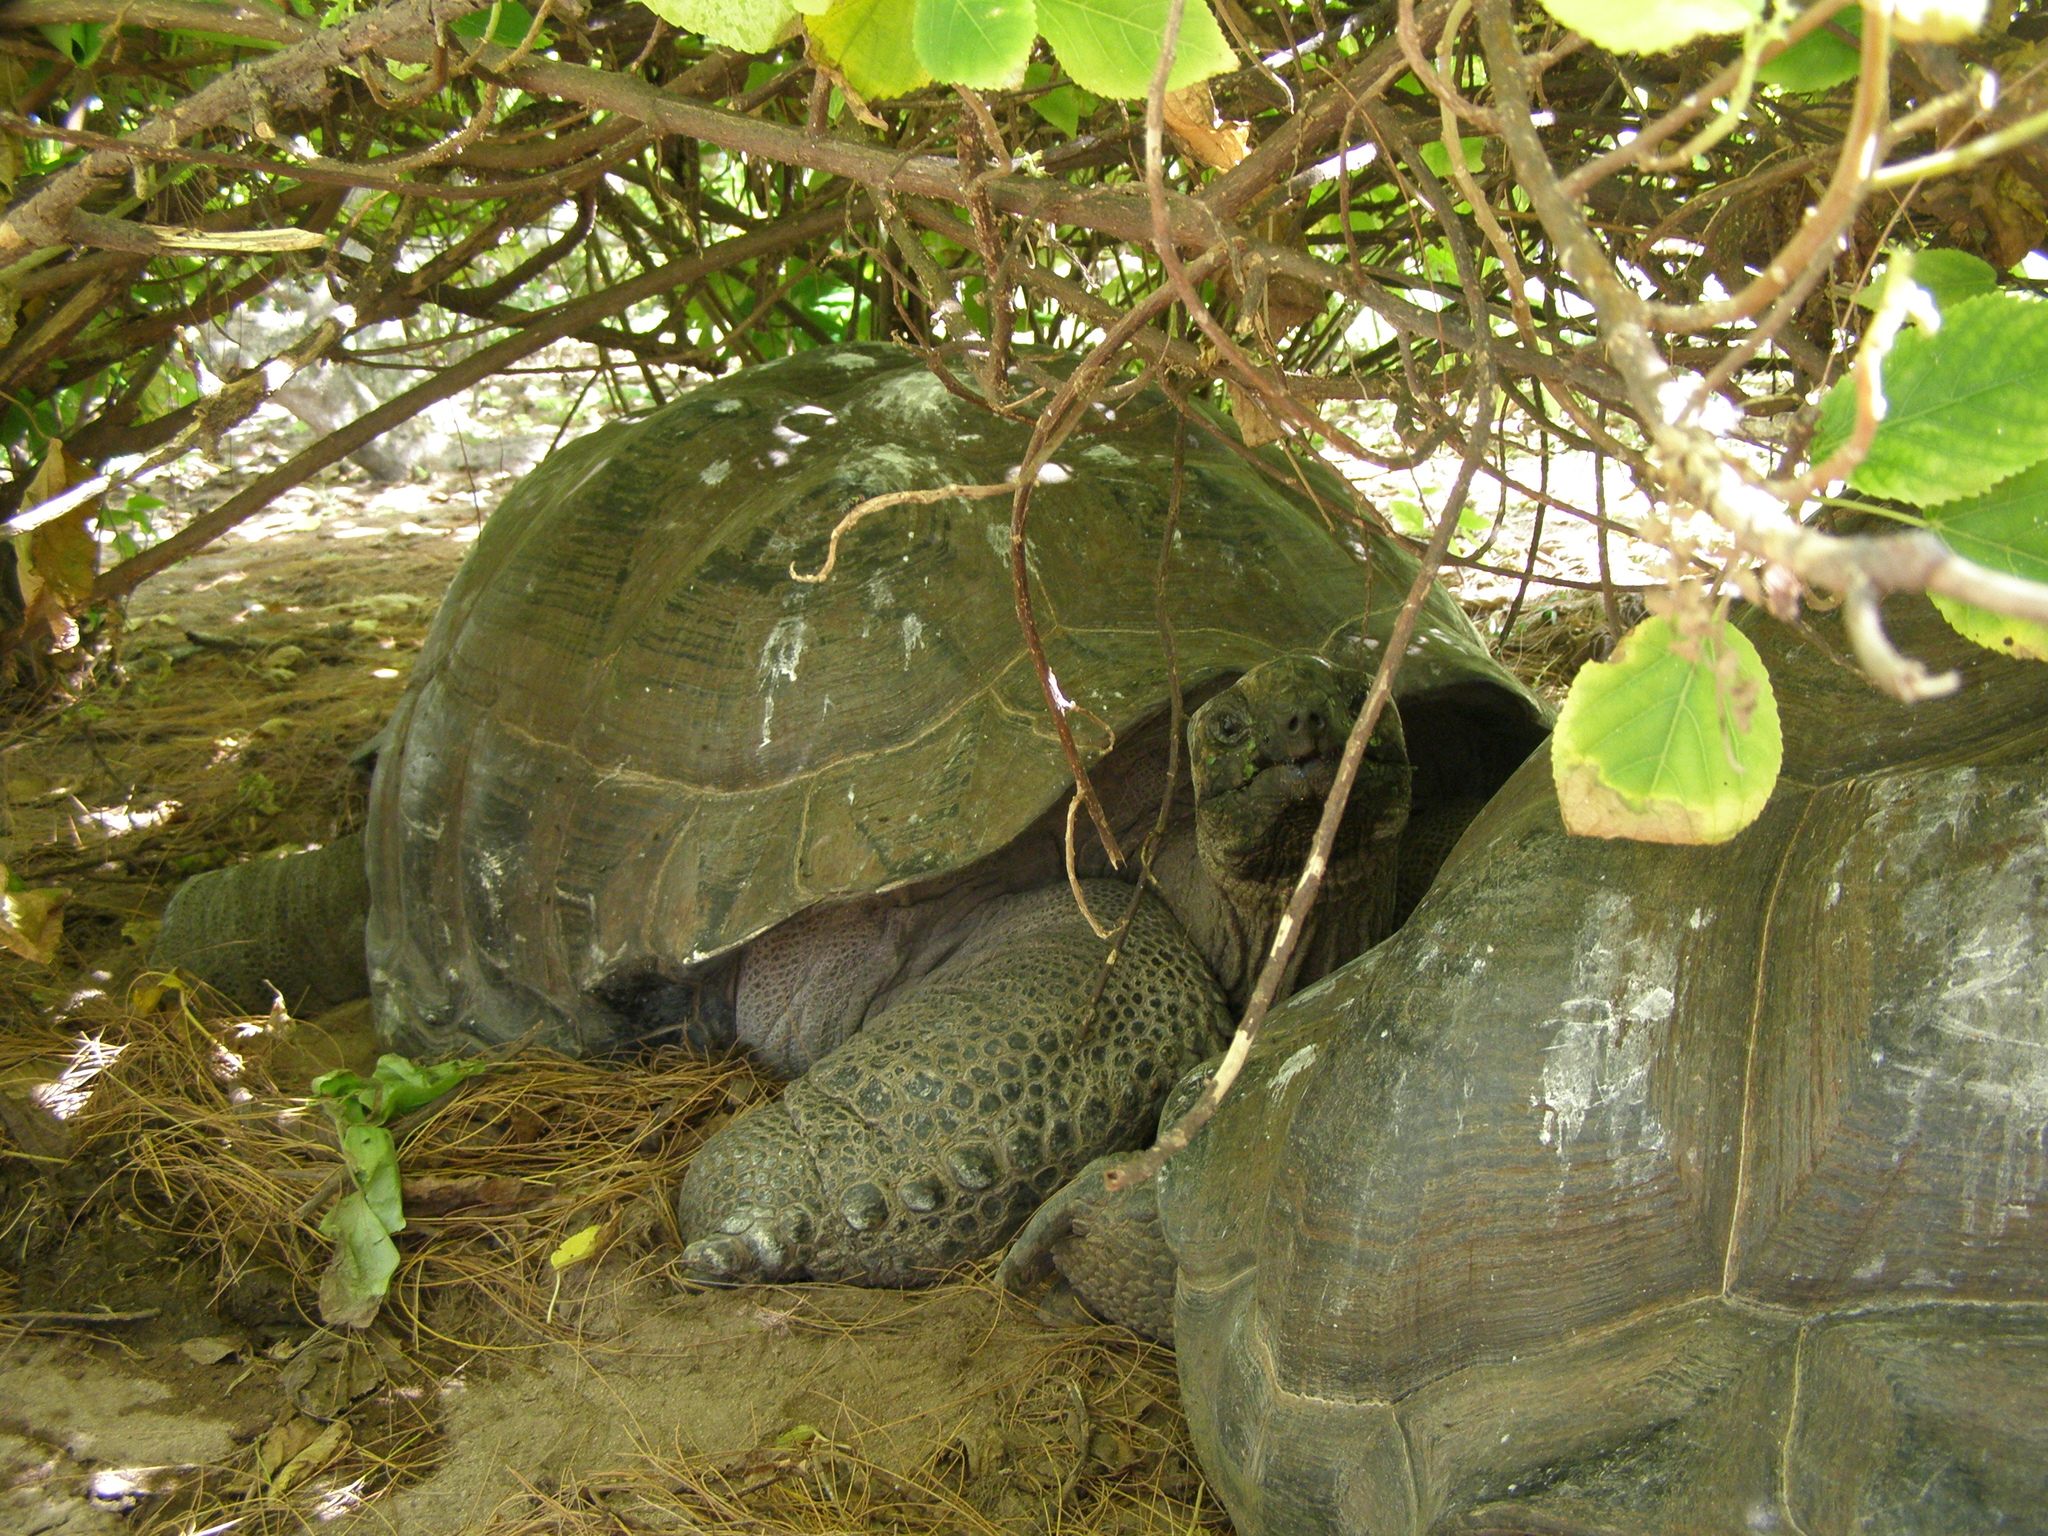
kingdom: Animalia
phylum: Chordata
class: Testudines
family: Testudinidae
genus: Aldabrachelys
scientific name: Aldabrachelys gigantea
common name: Aldabra giant tortoise
